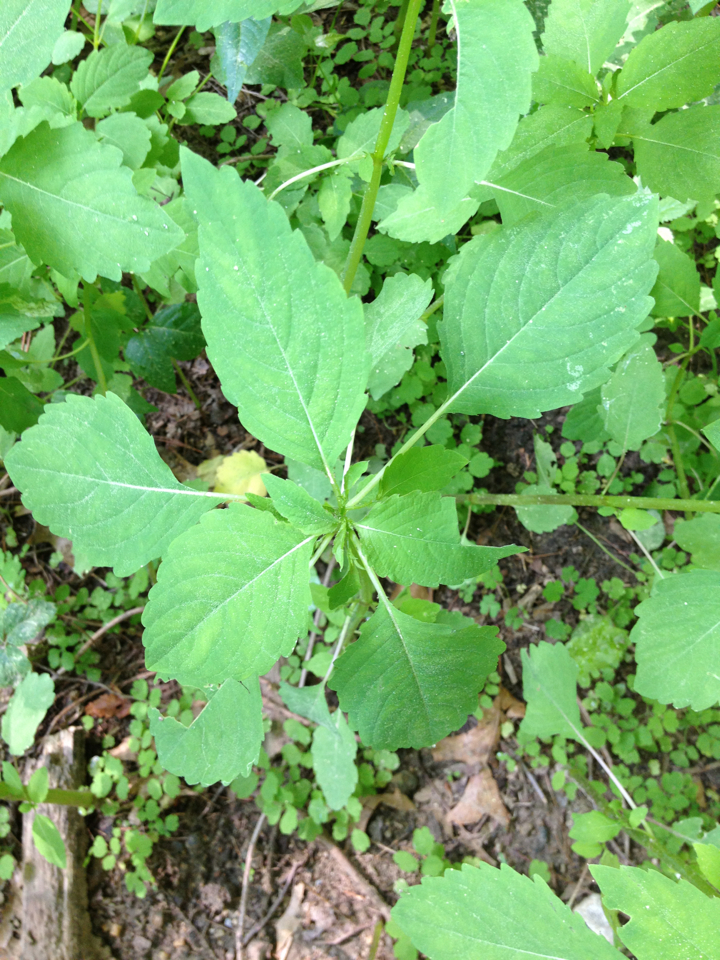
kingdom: Plantae
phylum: Tracheophyta
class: Magnoliopsida
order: Ericales
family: Balsaminaceae
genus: Impatiens
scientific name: Impatiens capensis
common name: Orange balsam
